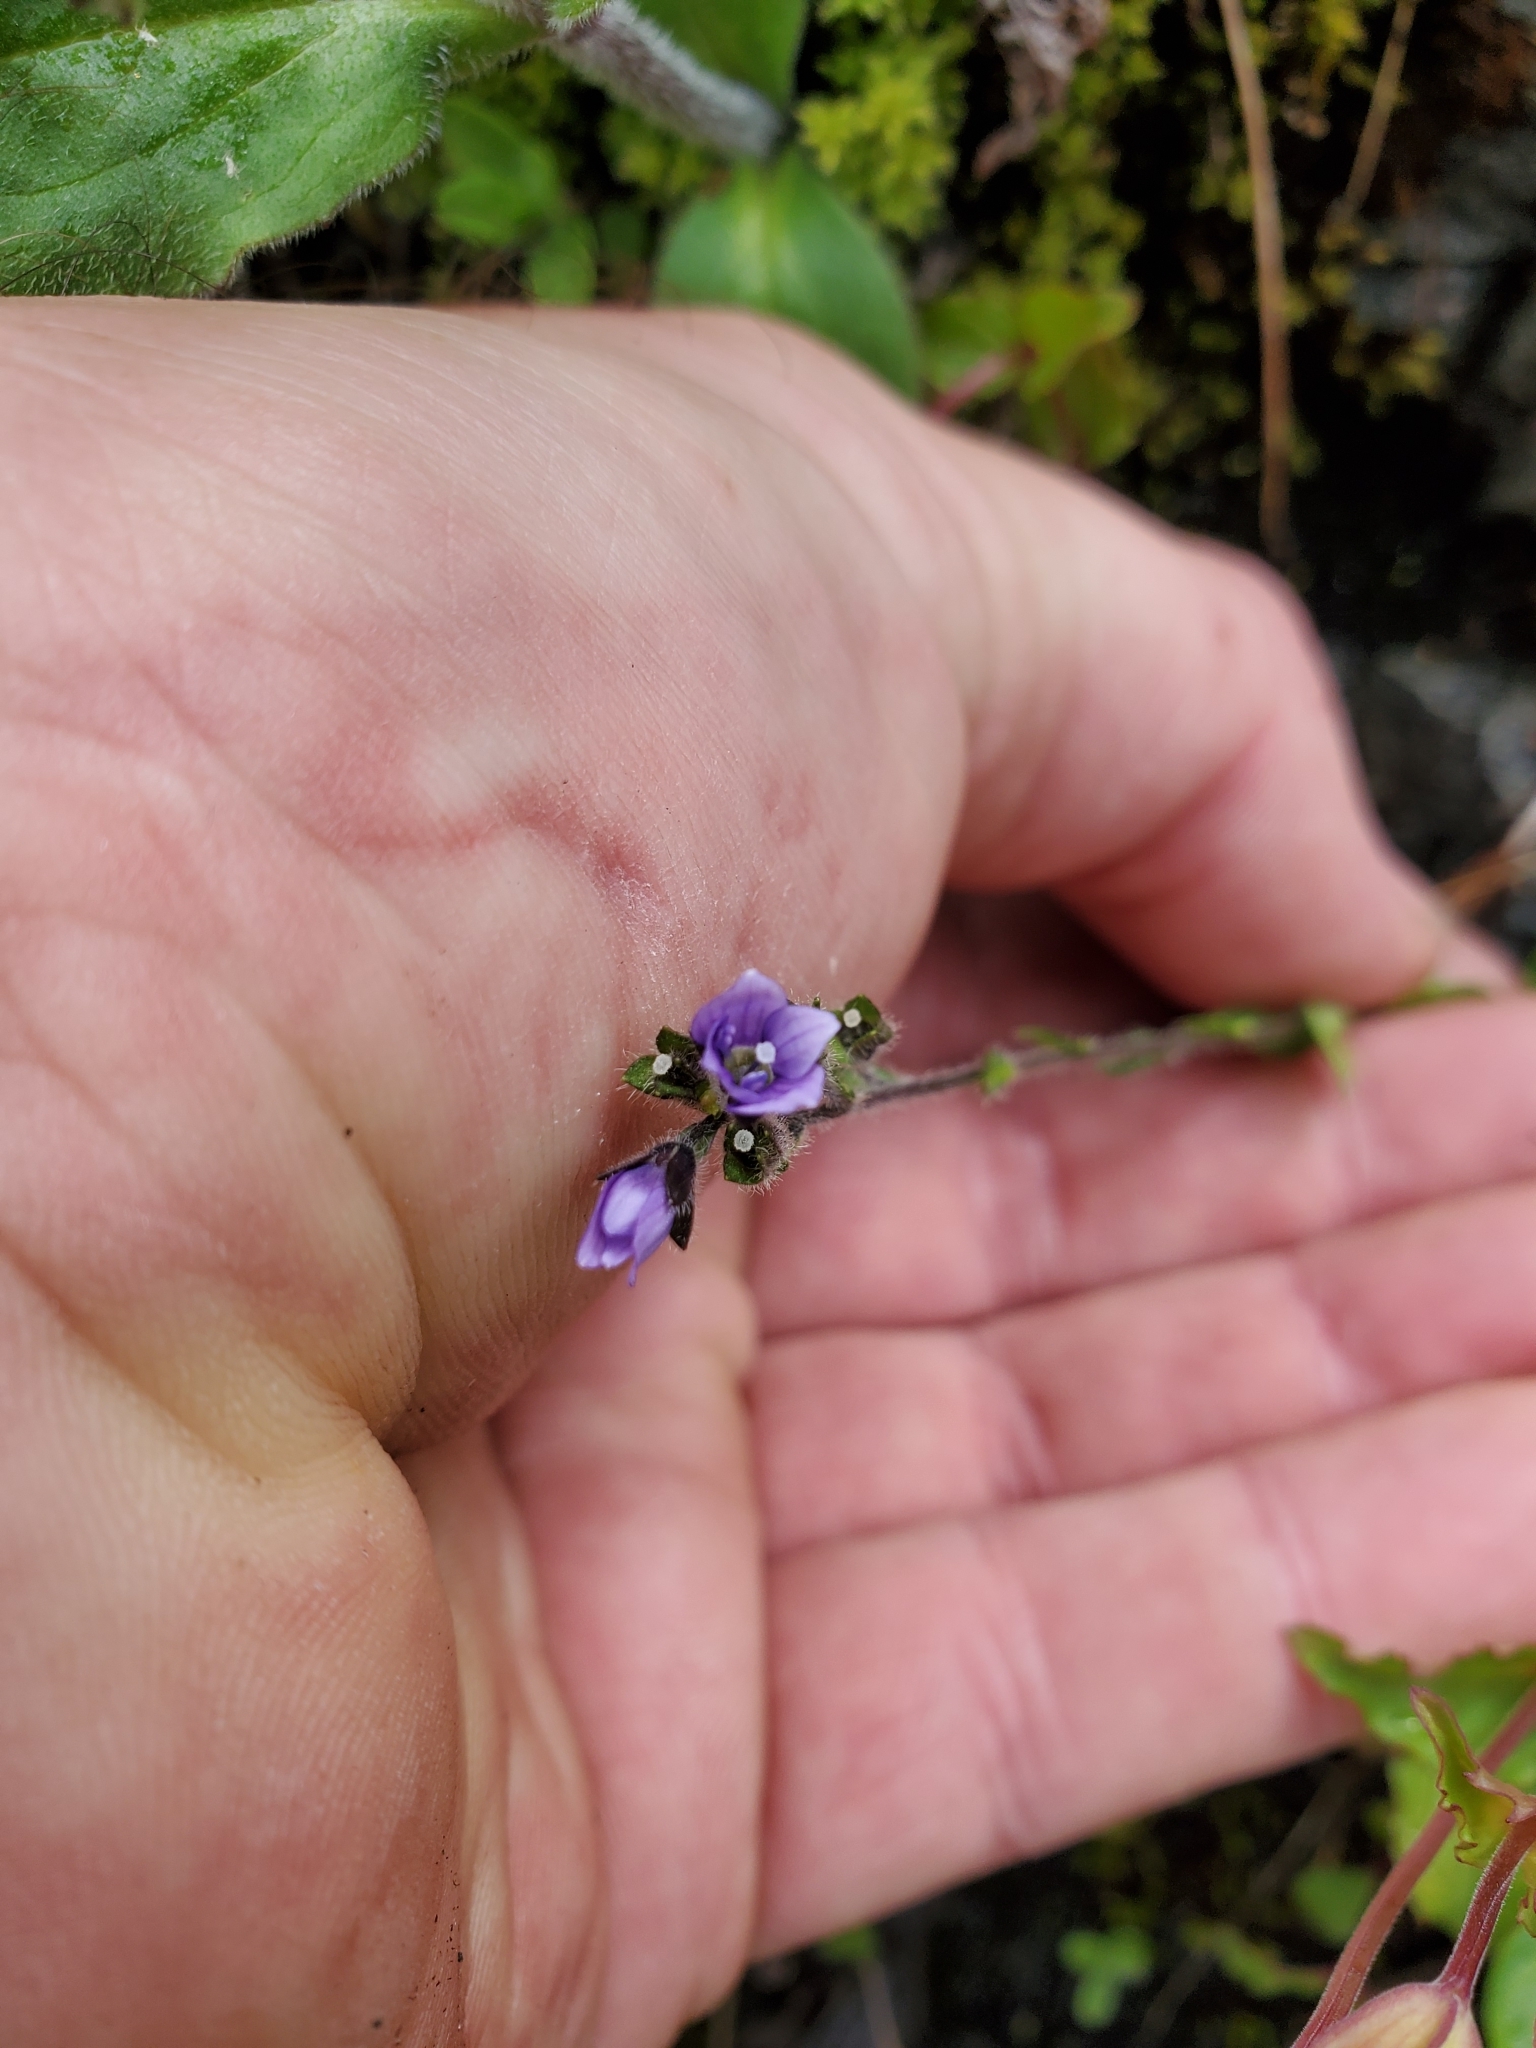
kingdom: Plantae
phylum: Tracheophyta
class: Magnoliopsida
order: Lamiales
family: Plantaginaceae
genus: Veronica
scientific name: Veronica wormskjoldii
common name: American alpine speedwell
